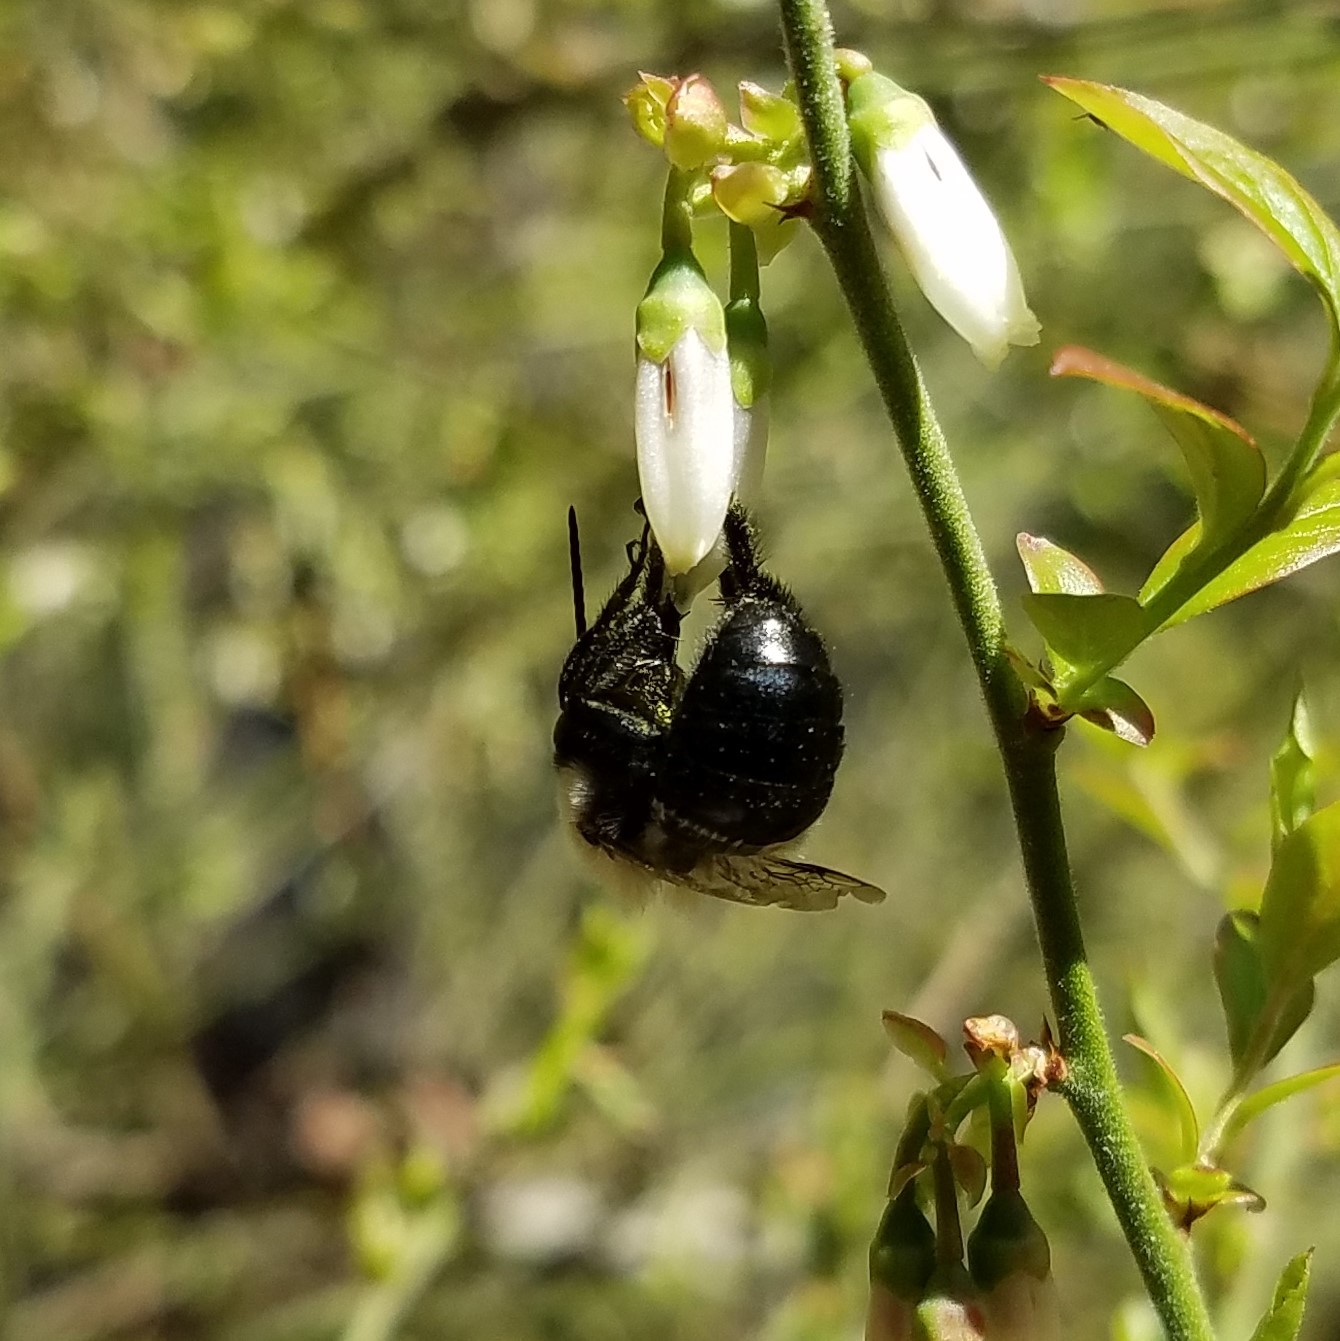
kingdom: Animalia
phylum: Arthropoda
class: Insecta
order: Hymenoptera
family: Apidae
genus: Habropoda
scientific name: Habropoda laboriosa
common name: Southeastern blueberry bee
